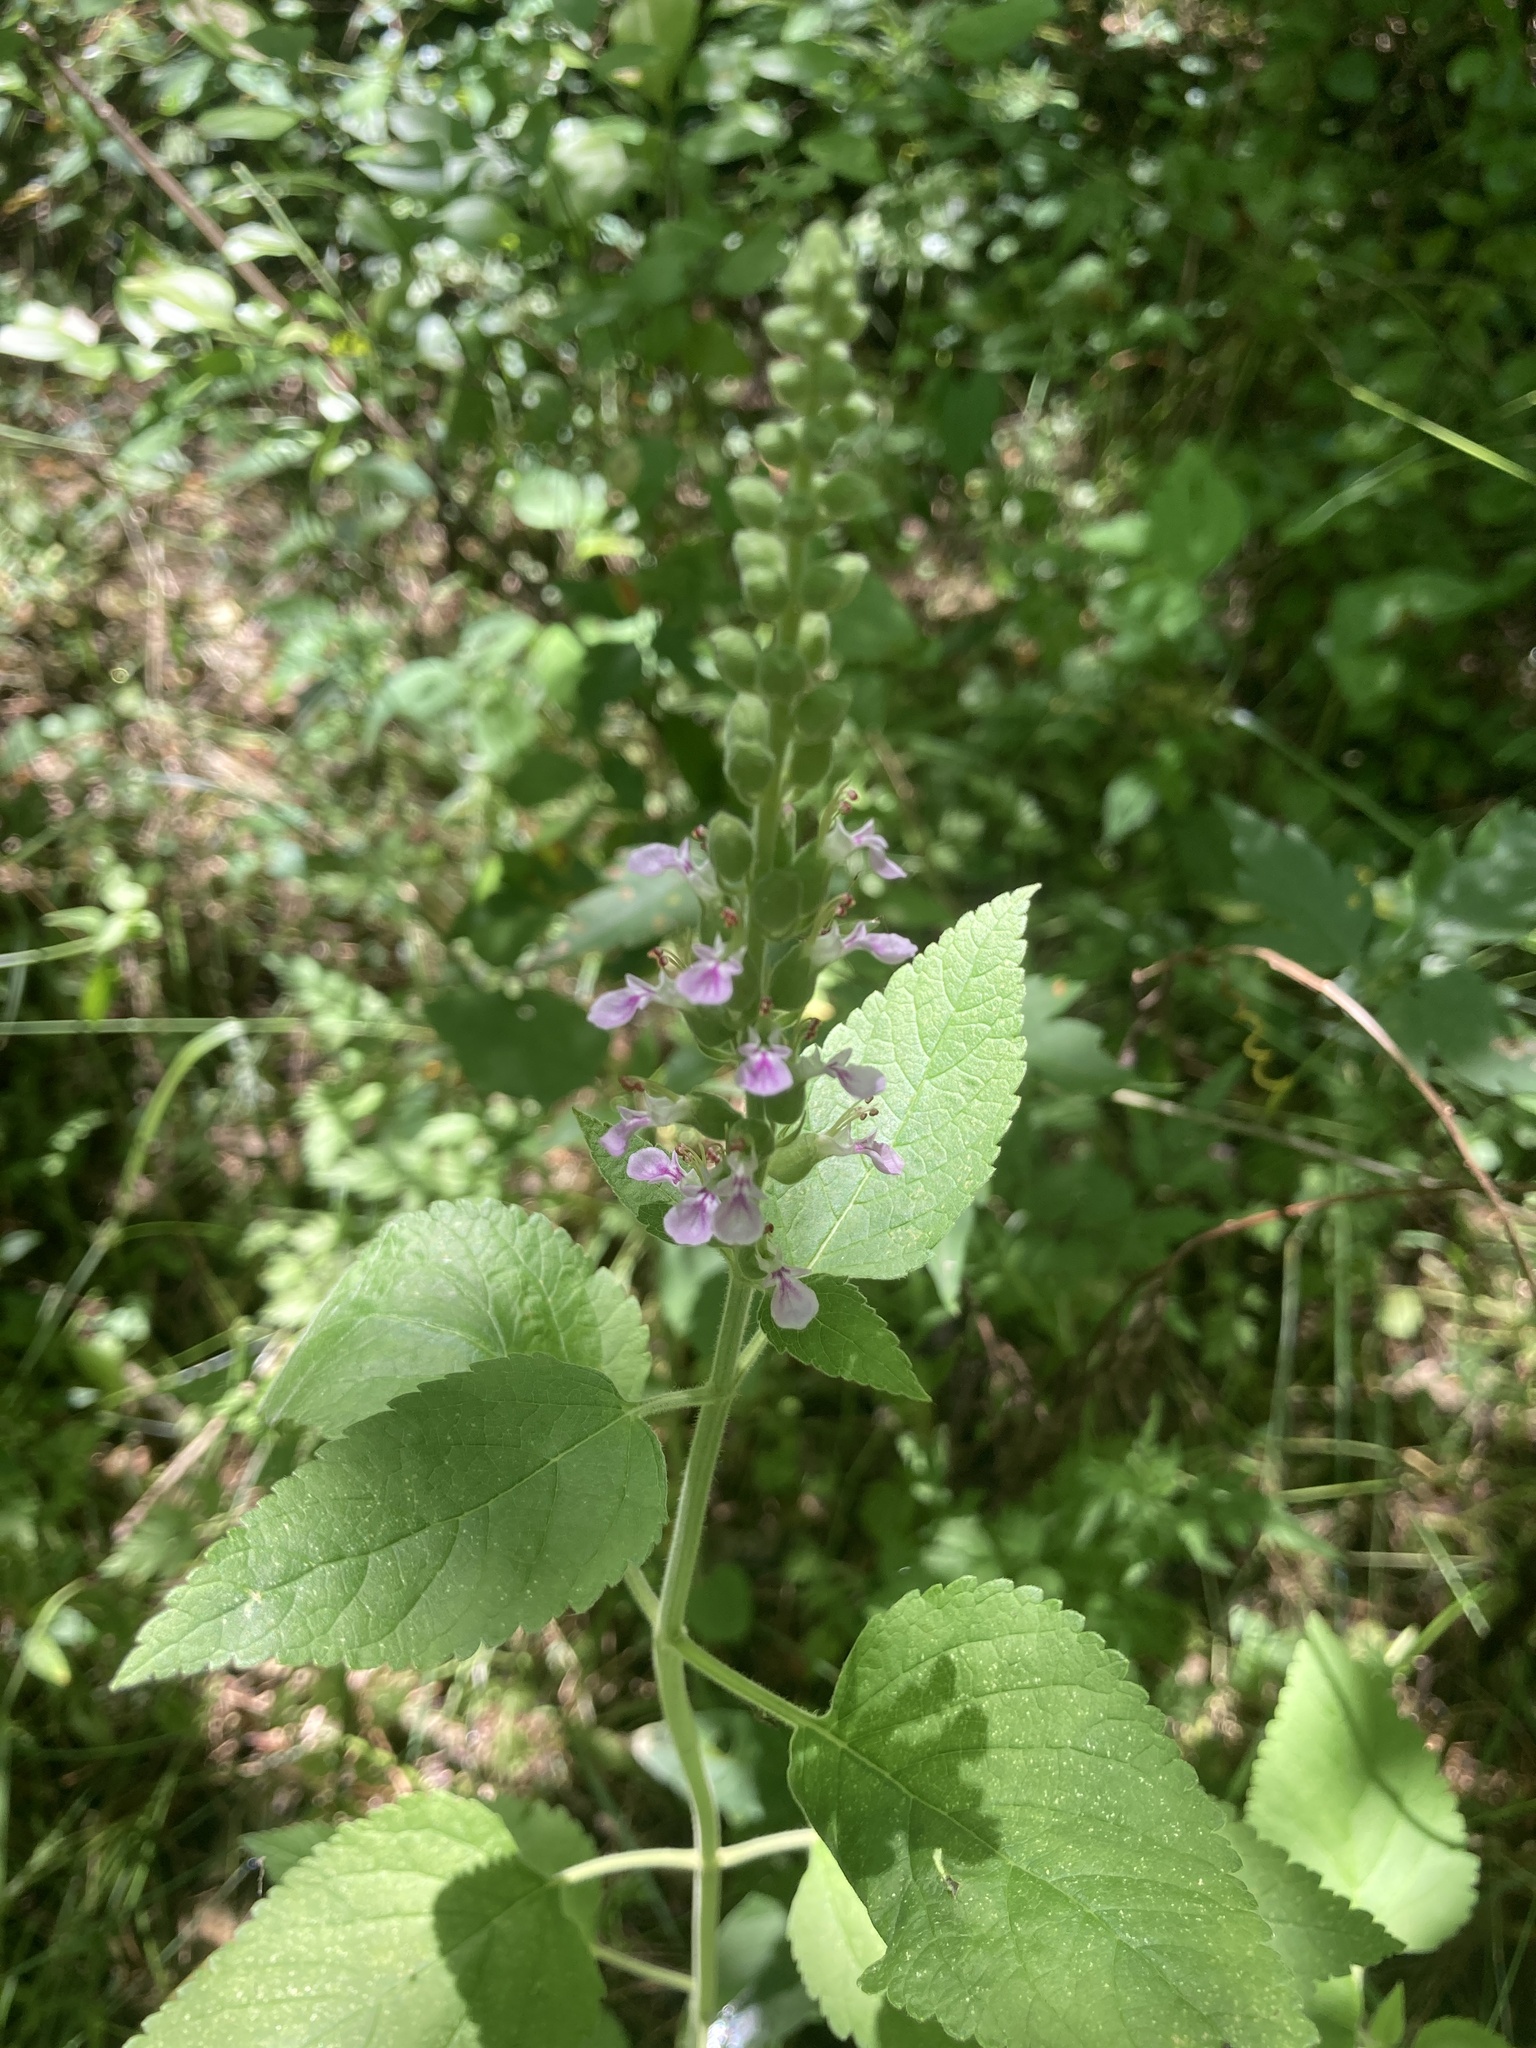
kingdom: Plantae
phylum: Tracheophyta
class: Magnoliopsida
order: Lamiales
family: Lamiaceae
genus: Teucrium
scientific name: Teucrium vesicarium
